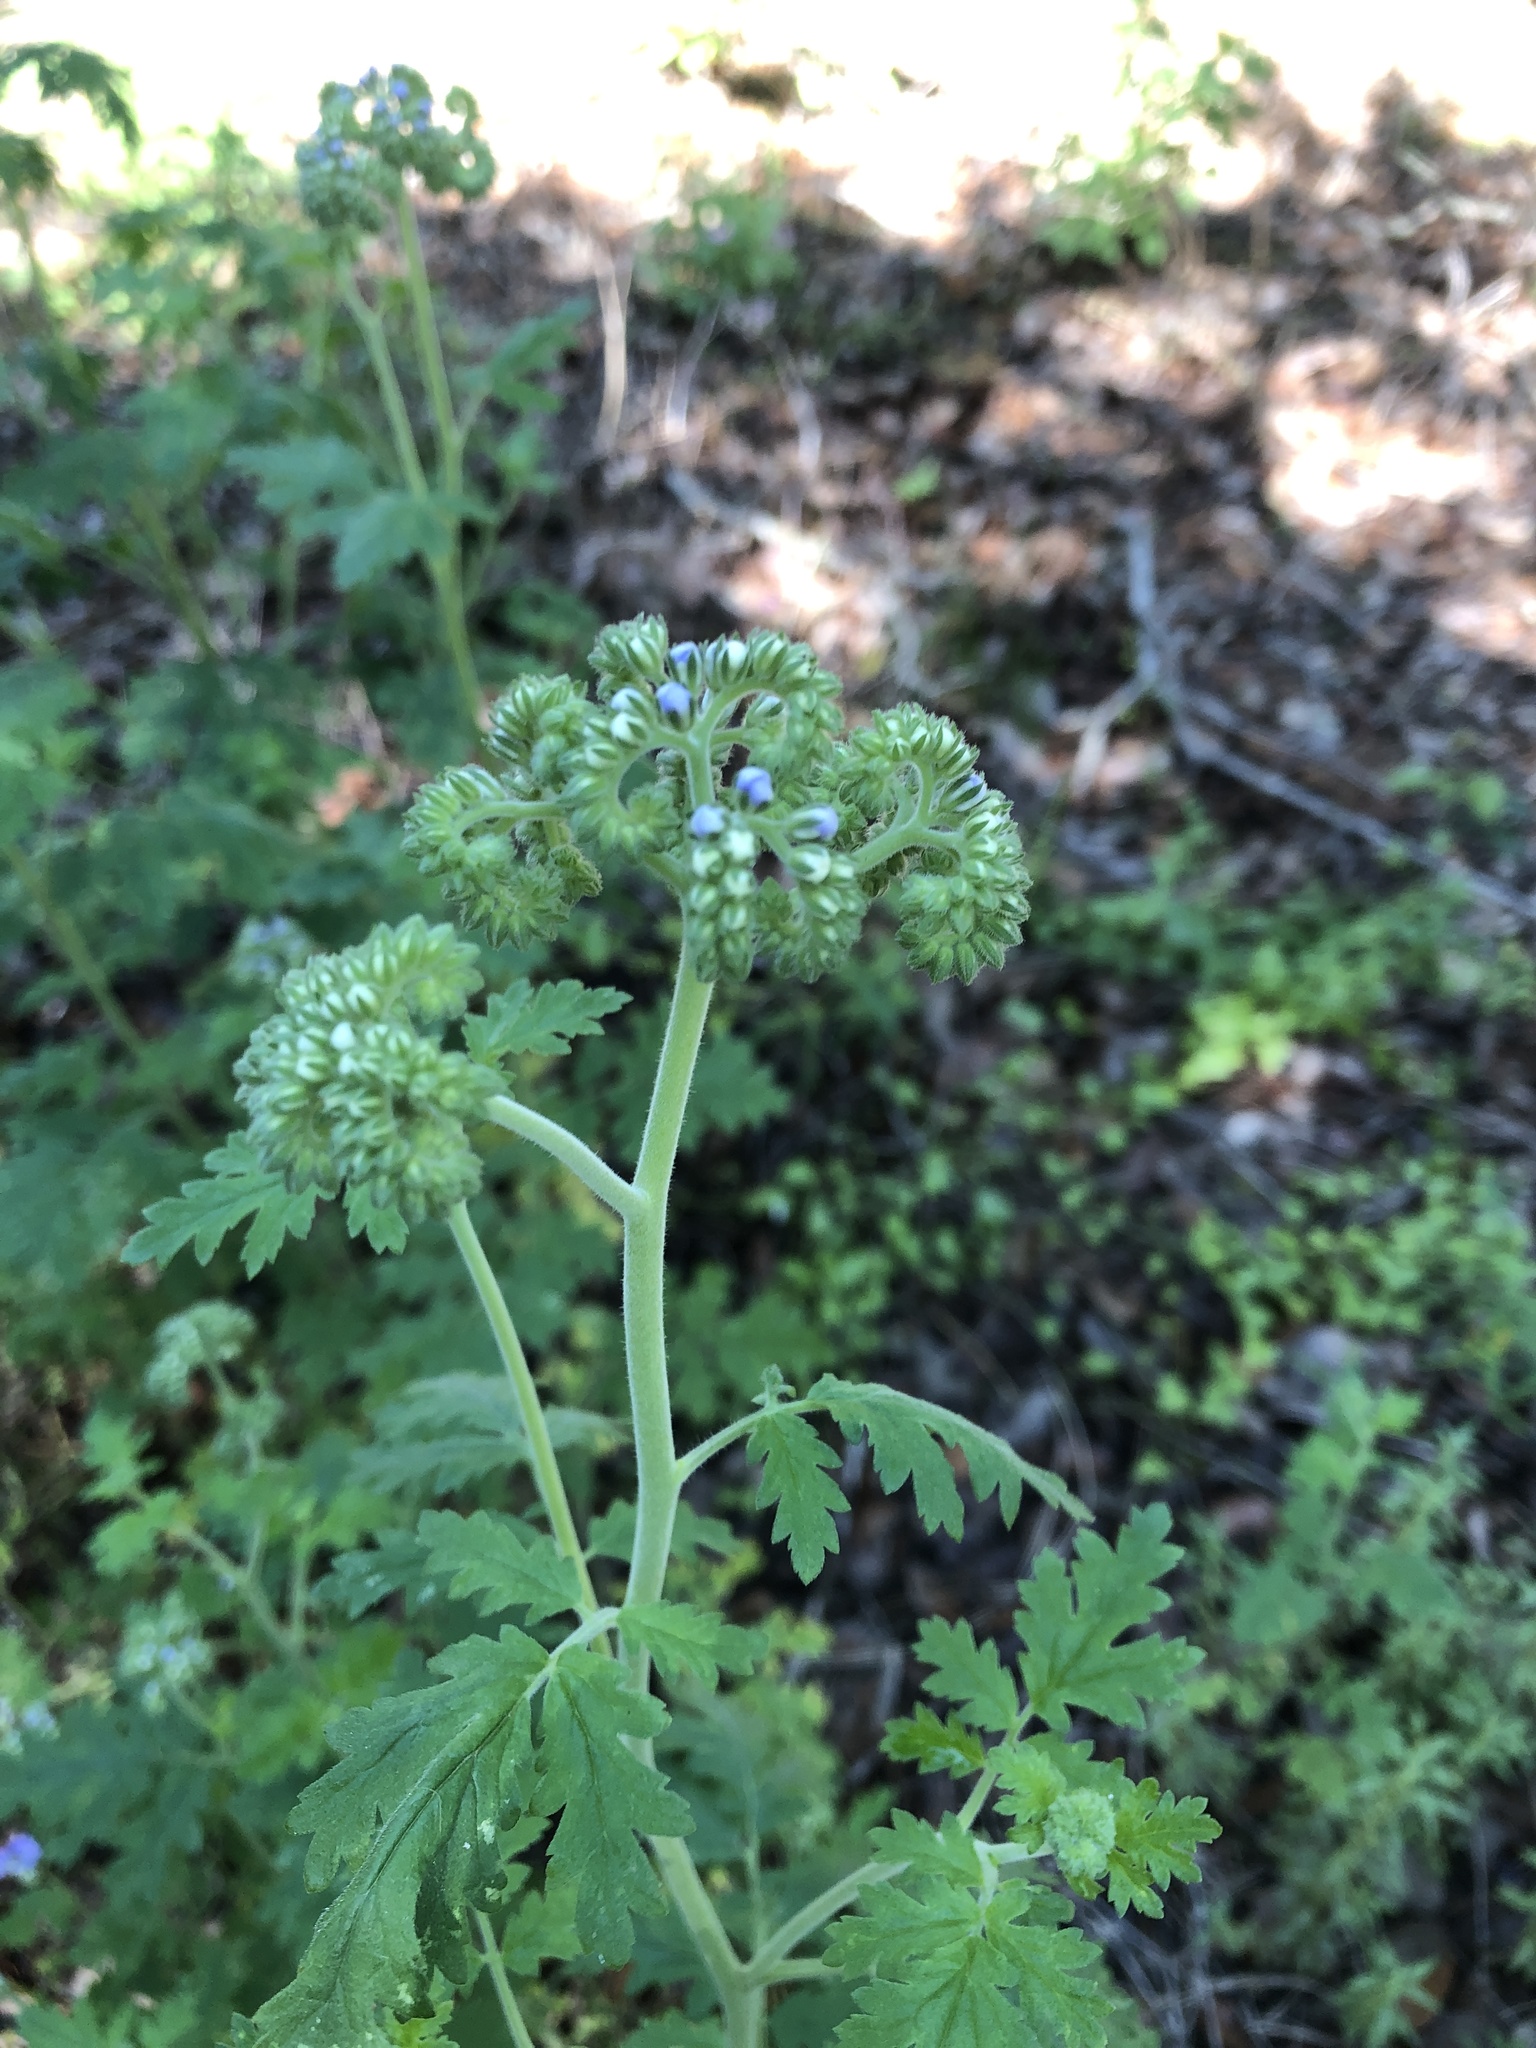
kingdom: Plantae
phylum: Tracheophyta
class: Magnoliopsida
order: Boraginales
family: Hydrophyllaceae
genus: Phacelia
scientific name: Phacelia congesta
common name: Blue curls
